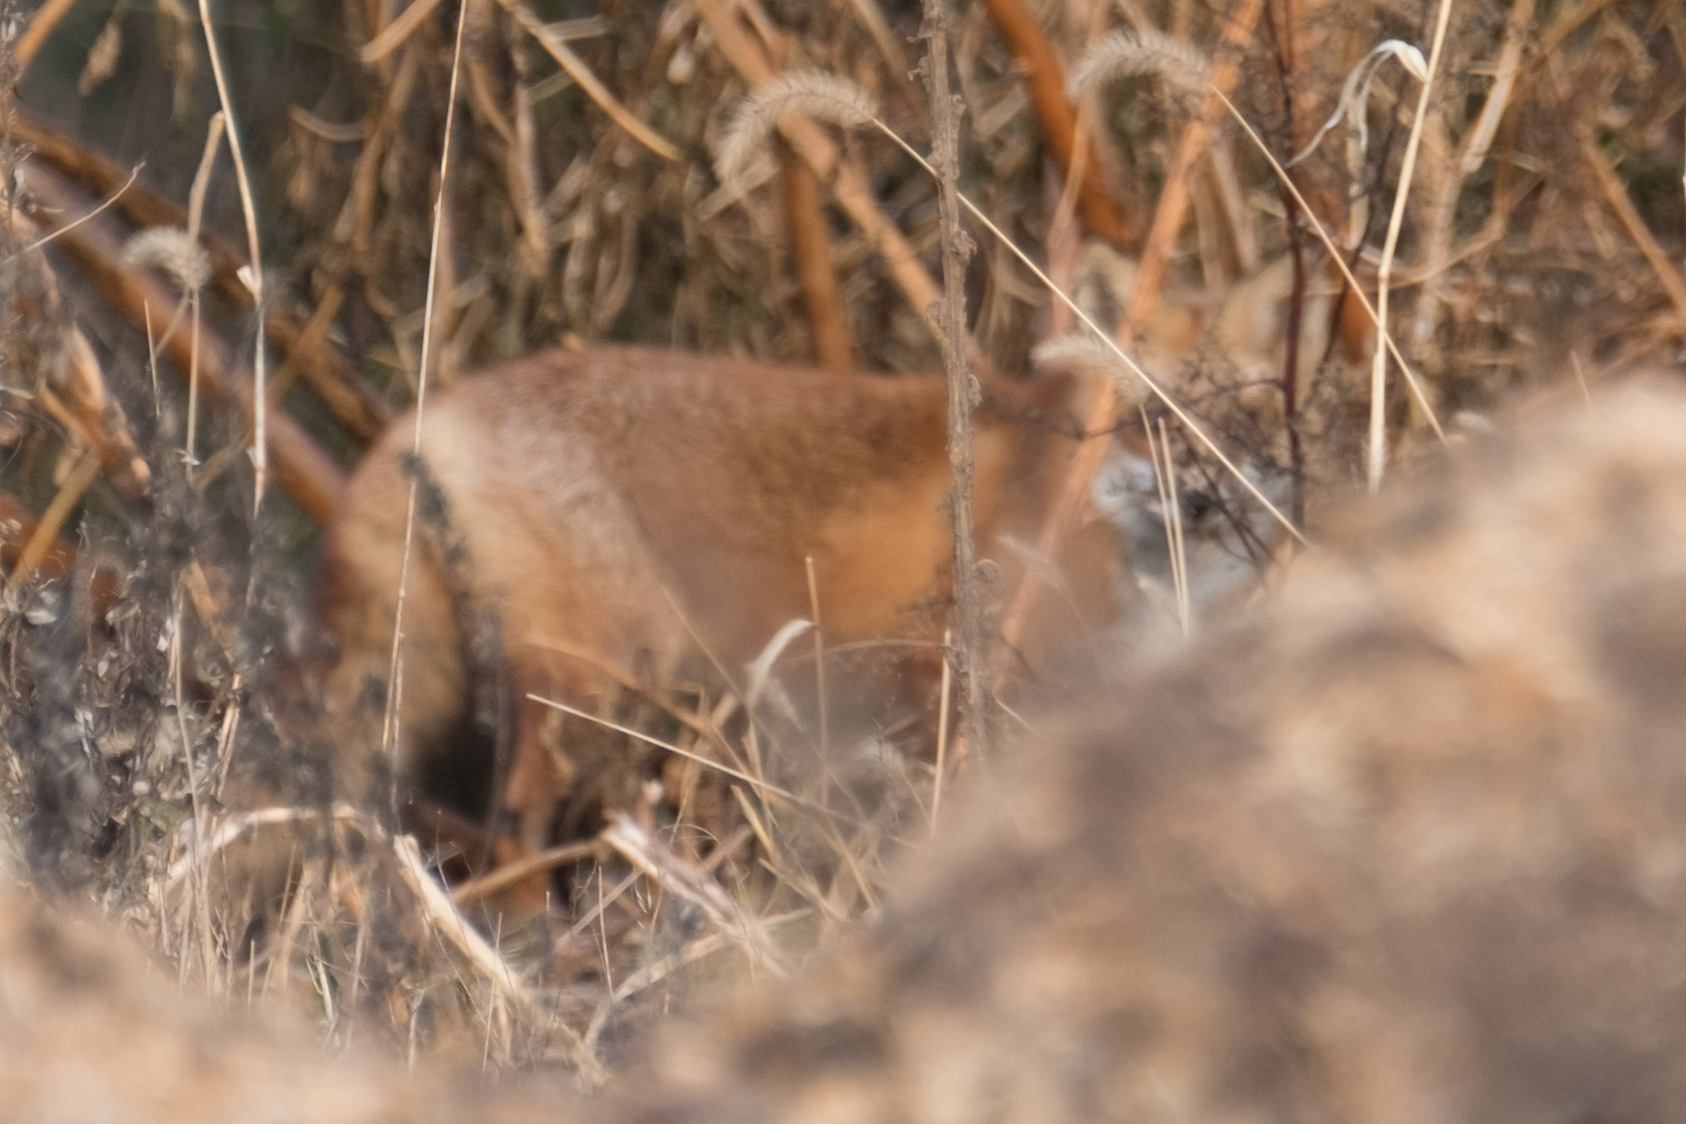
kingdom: Animalia
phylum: Chordata
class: Mammalia
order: Carnivora
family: Canidae
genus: Vulpes
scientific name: Vulpes vulpes
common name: Red fox
